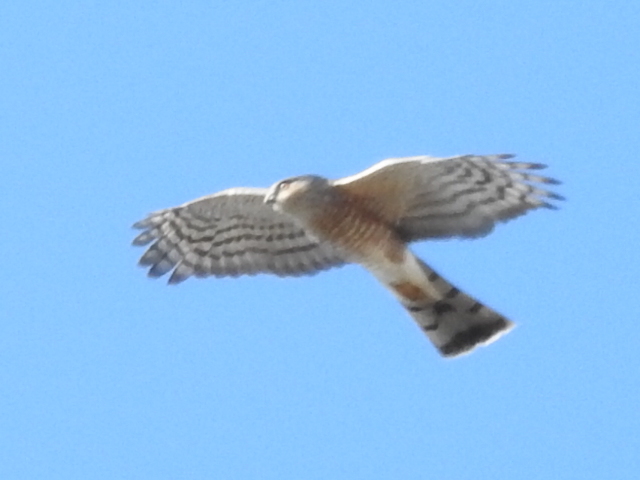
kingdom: Animalia
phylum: Chordata
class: Aves
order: Accipitriformes
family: Accipitridae
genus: Accipiter
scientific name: Accipiter striatus
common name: Sharp-shinned hawk
